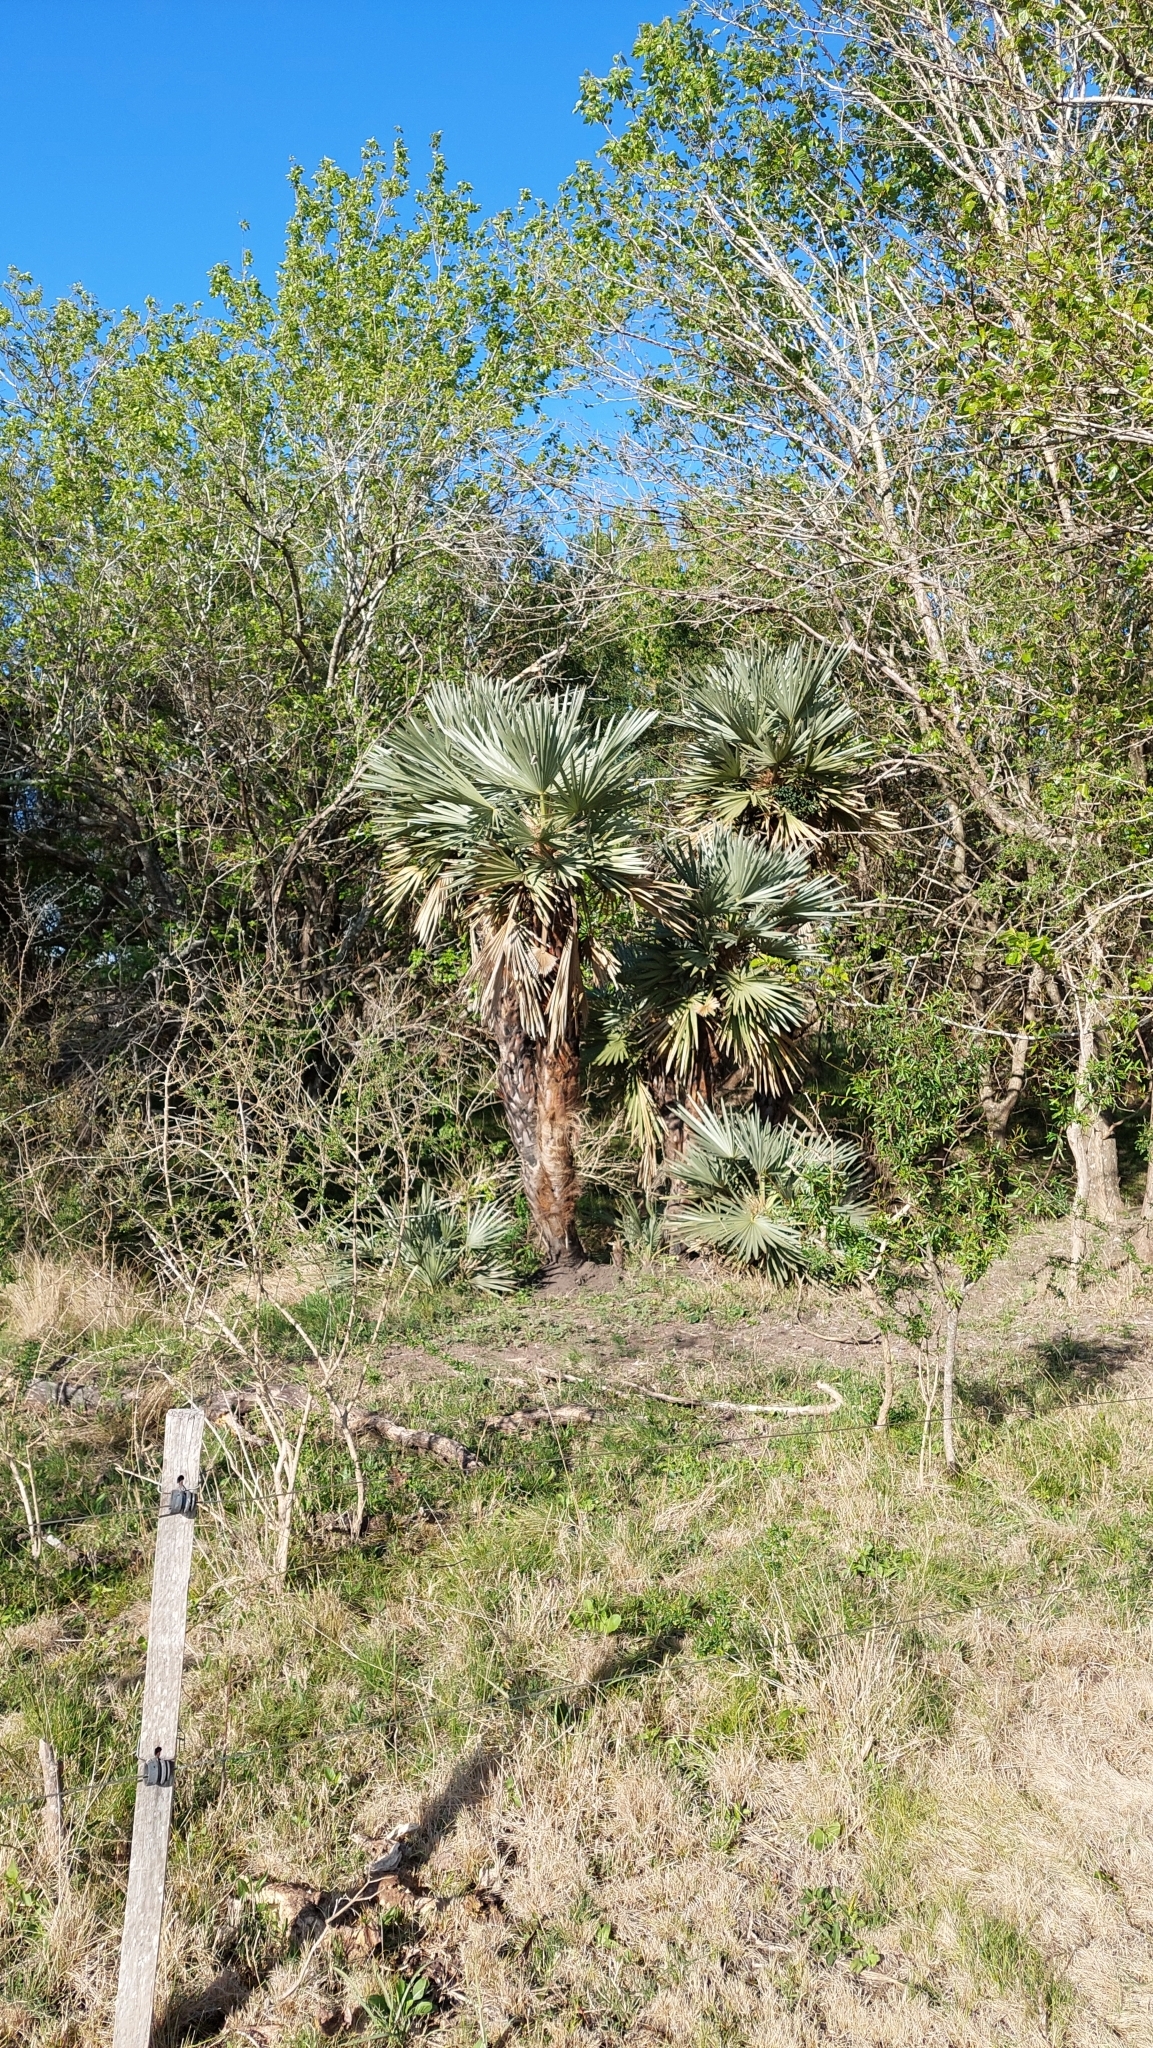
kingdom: Plantae
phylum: Tracheophyta
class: Liliopsida
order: Arecales
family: Arecaceae
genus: Trithrinax
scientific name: Trithrinax campestris
